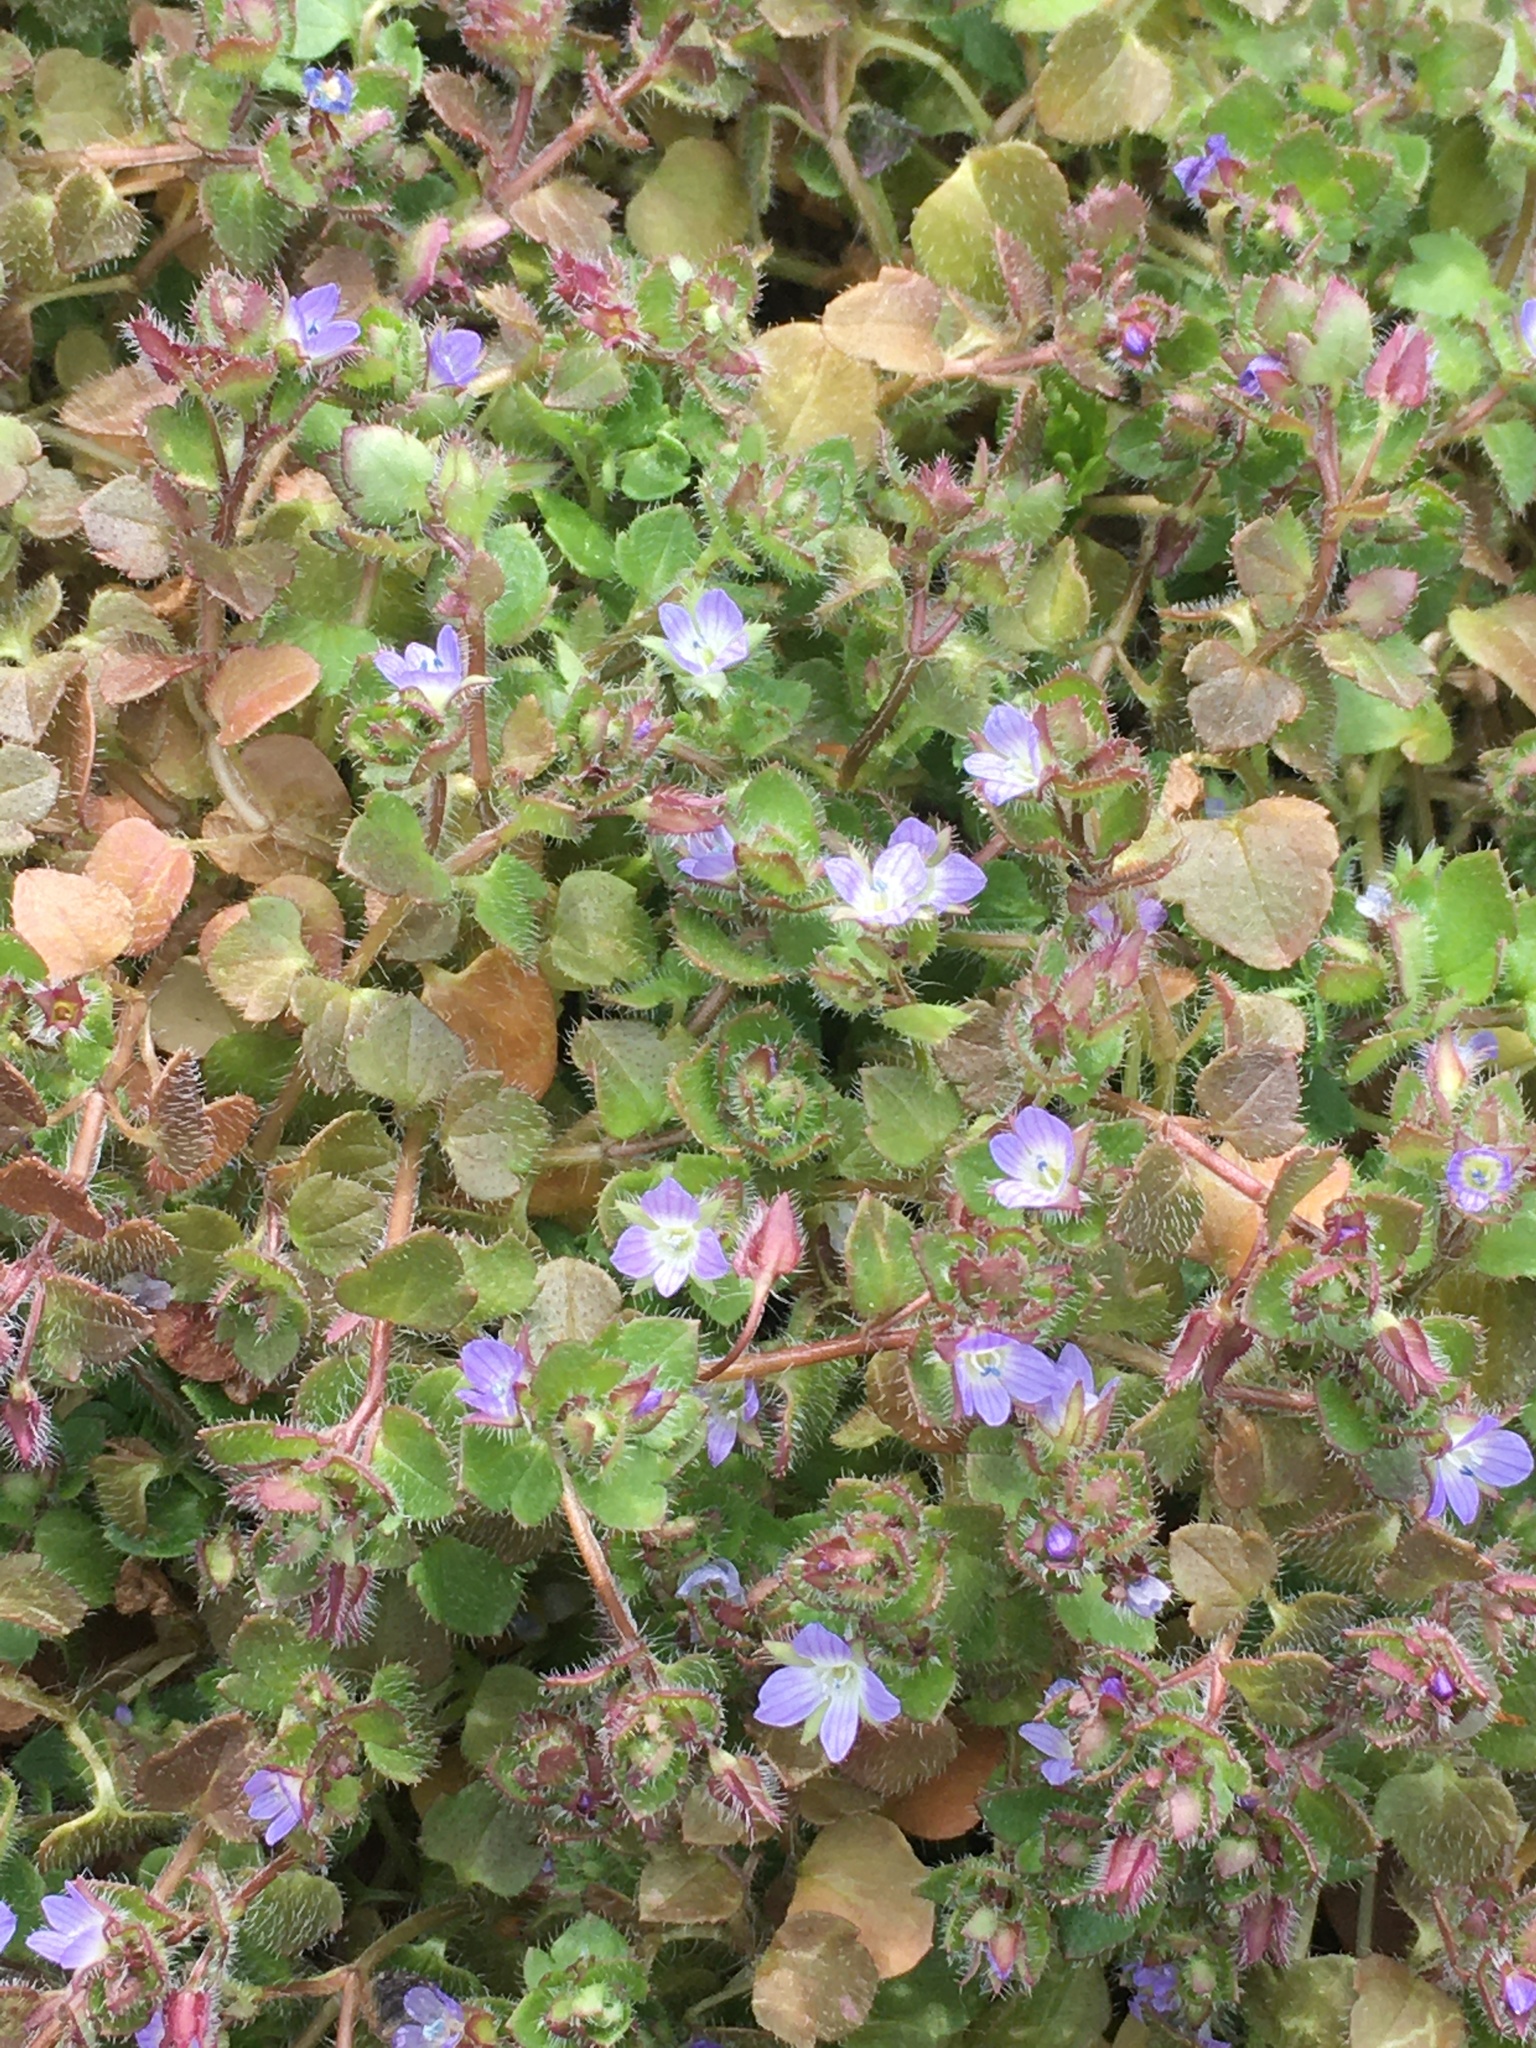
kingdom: Plantae
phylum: Tracheophyta
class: Magnoliopsida
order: Lamiales
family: Plantaginaceae
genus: Veronica
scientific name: Veronica hederifolia
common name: Ivy-leaved speedwell
